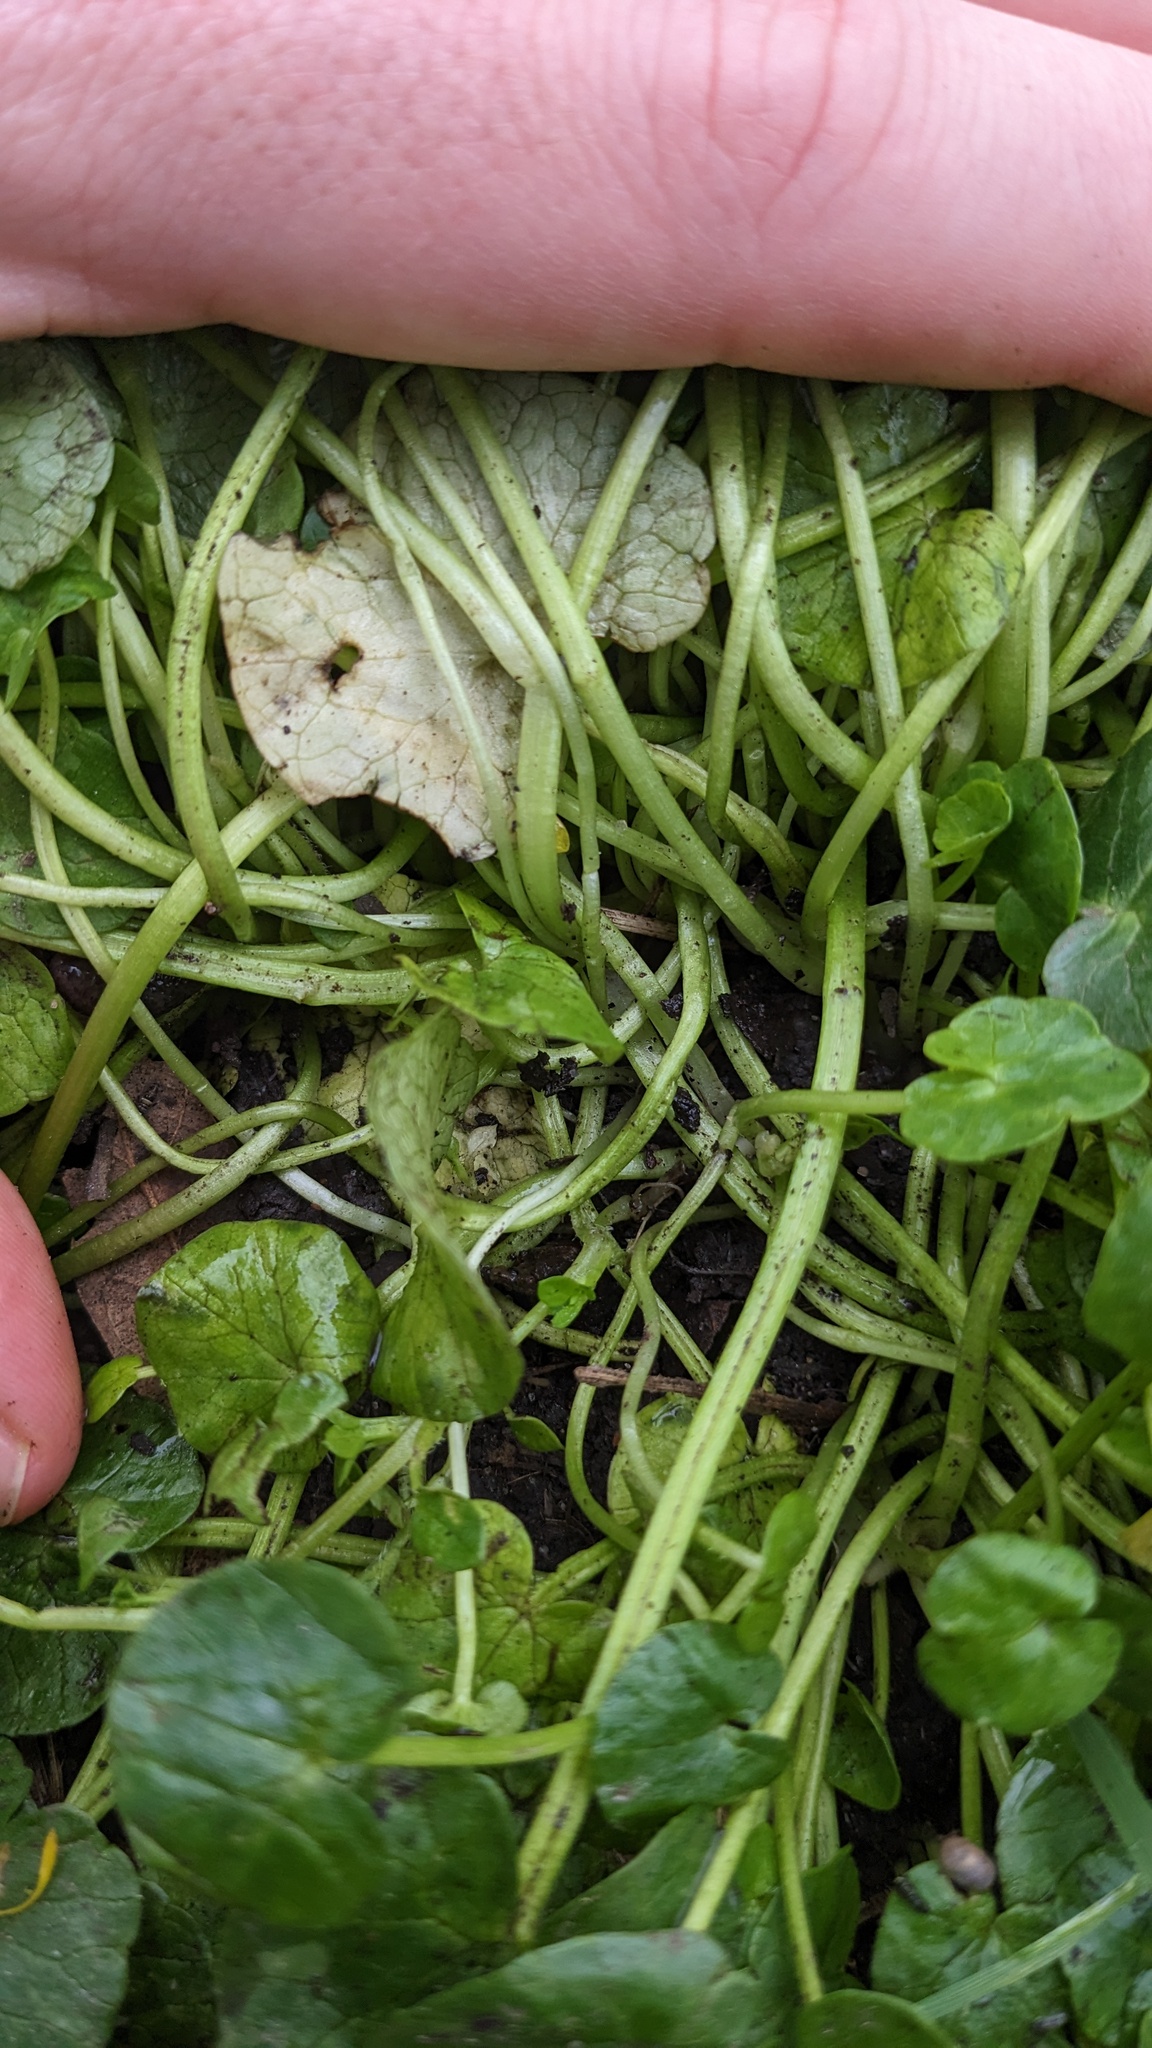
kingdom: Plantae
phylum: Tracheophyta
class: Magnoliopsida
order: Ranunculales
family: Ranunculaceae
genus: Ficaria
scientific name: Ficaria verna
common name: Lesser celandine
